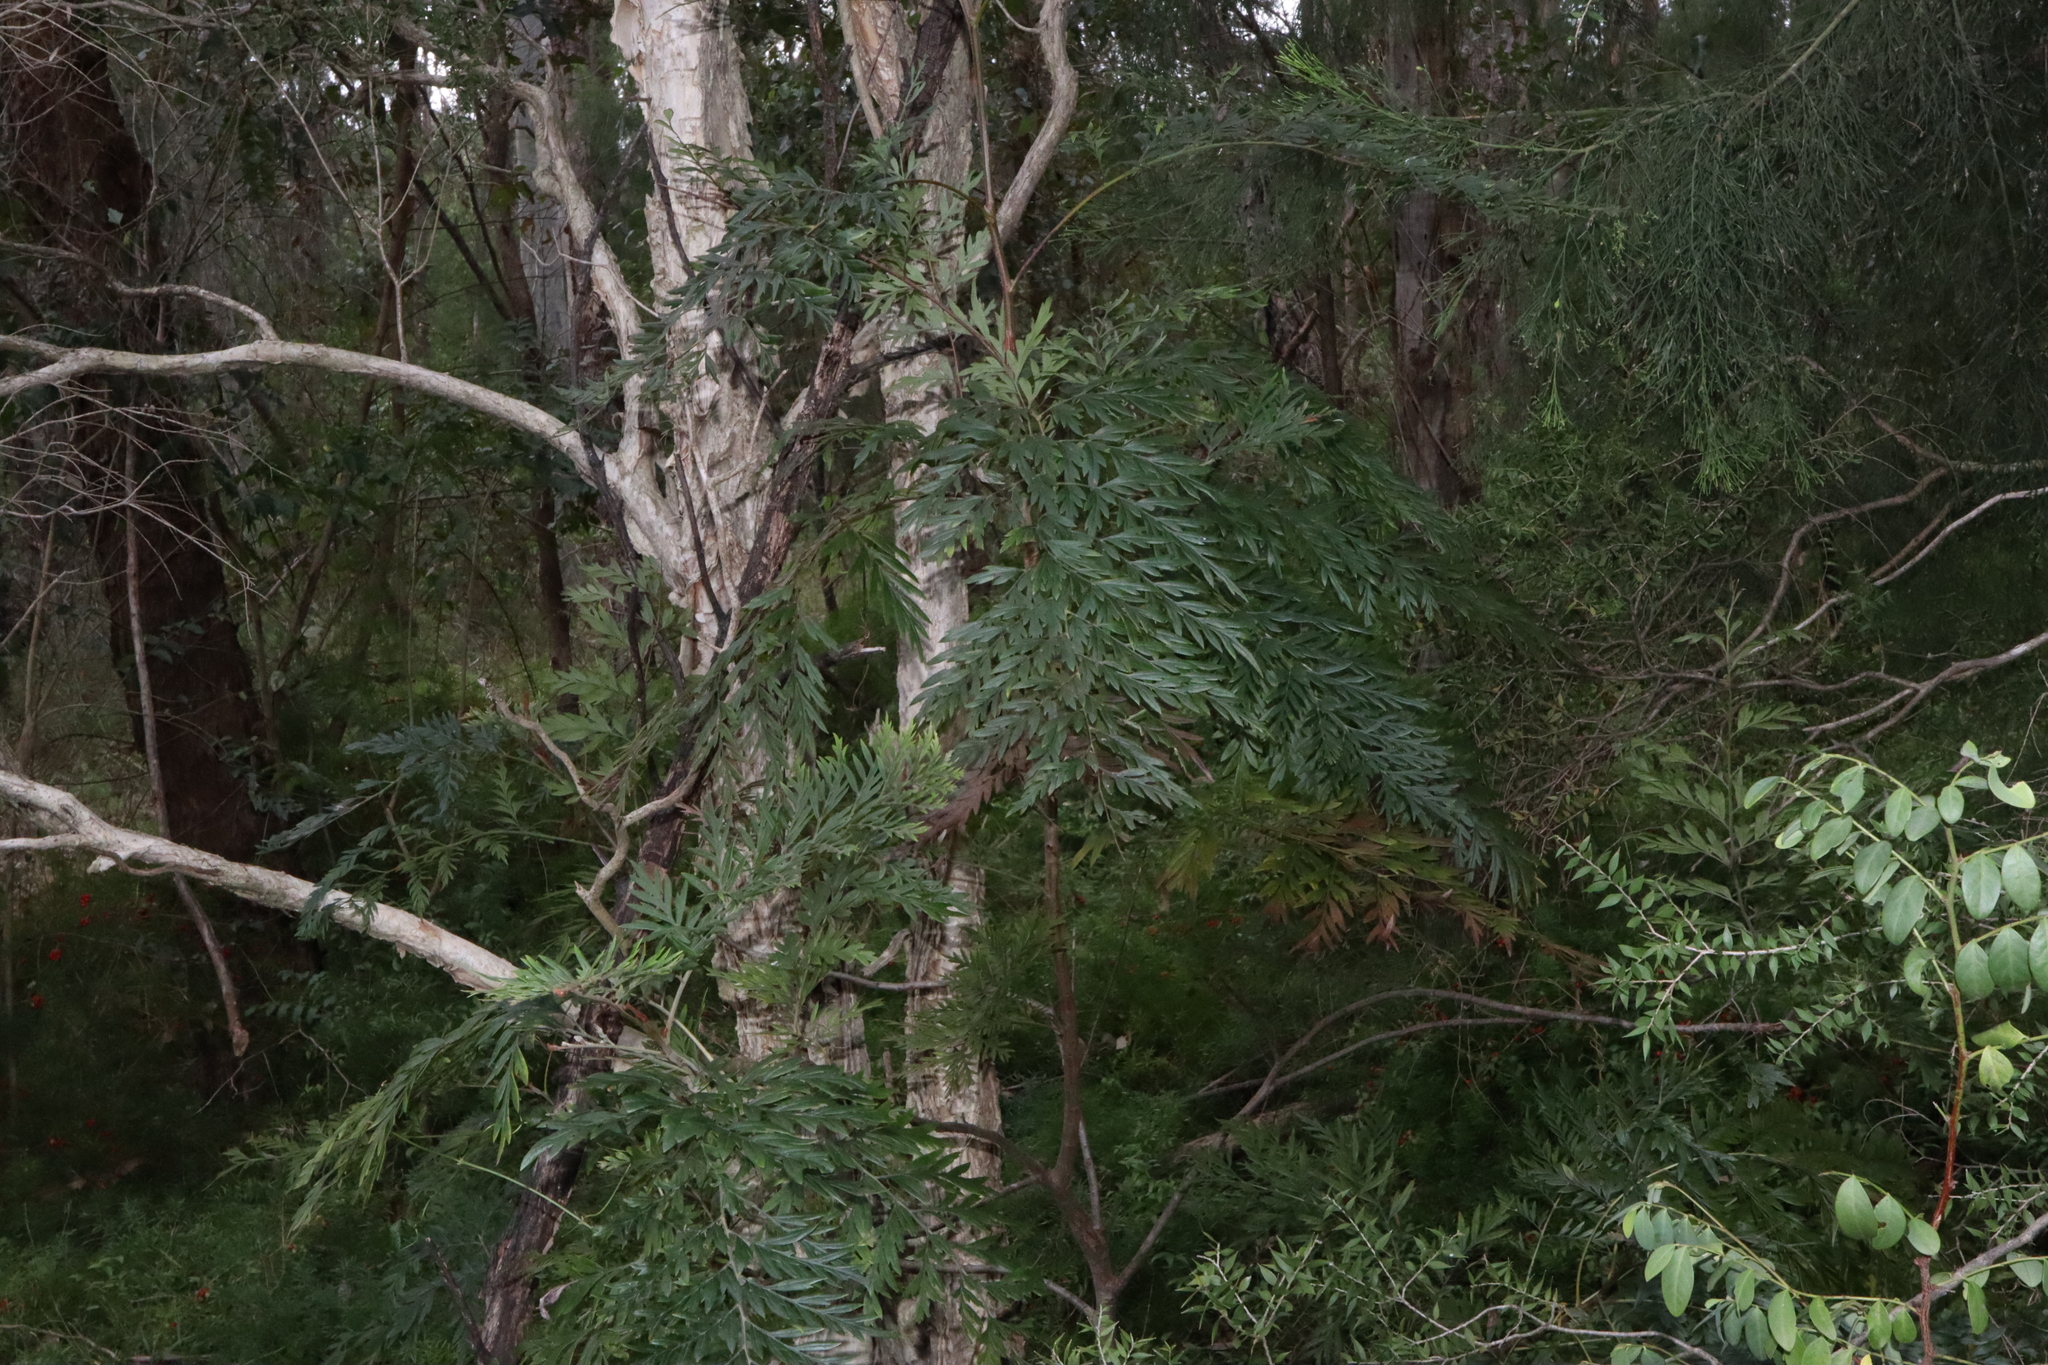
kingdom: Plantae
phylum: Tracheophyta
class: Magnoliopsida
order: Proteales
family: Proteaceae
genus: Grevillea
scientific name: Grevillea robusta
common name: Silkoak
